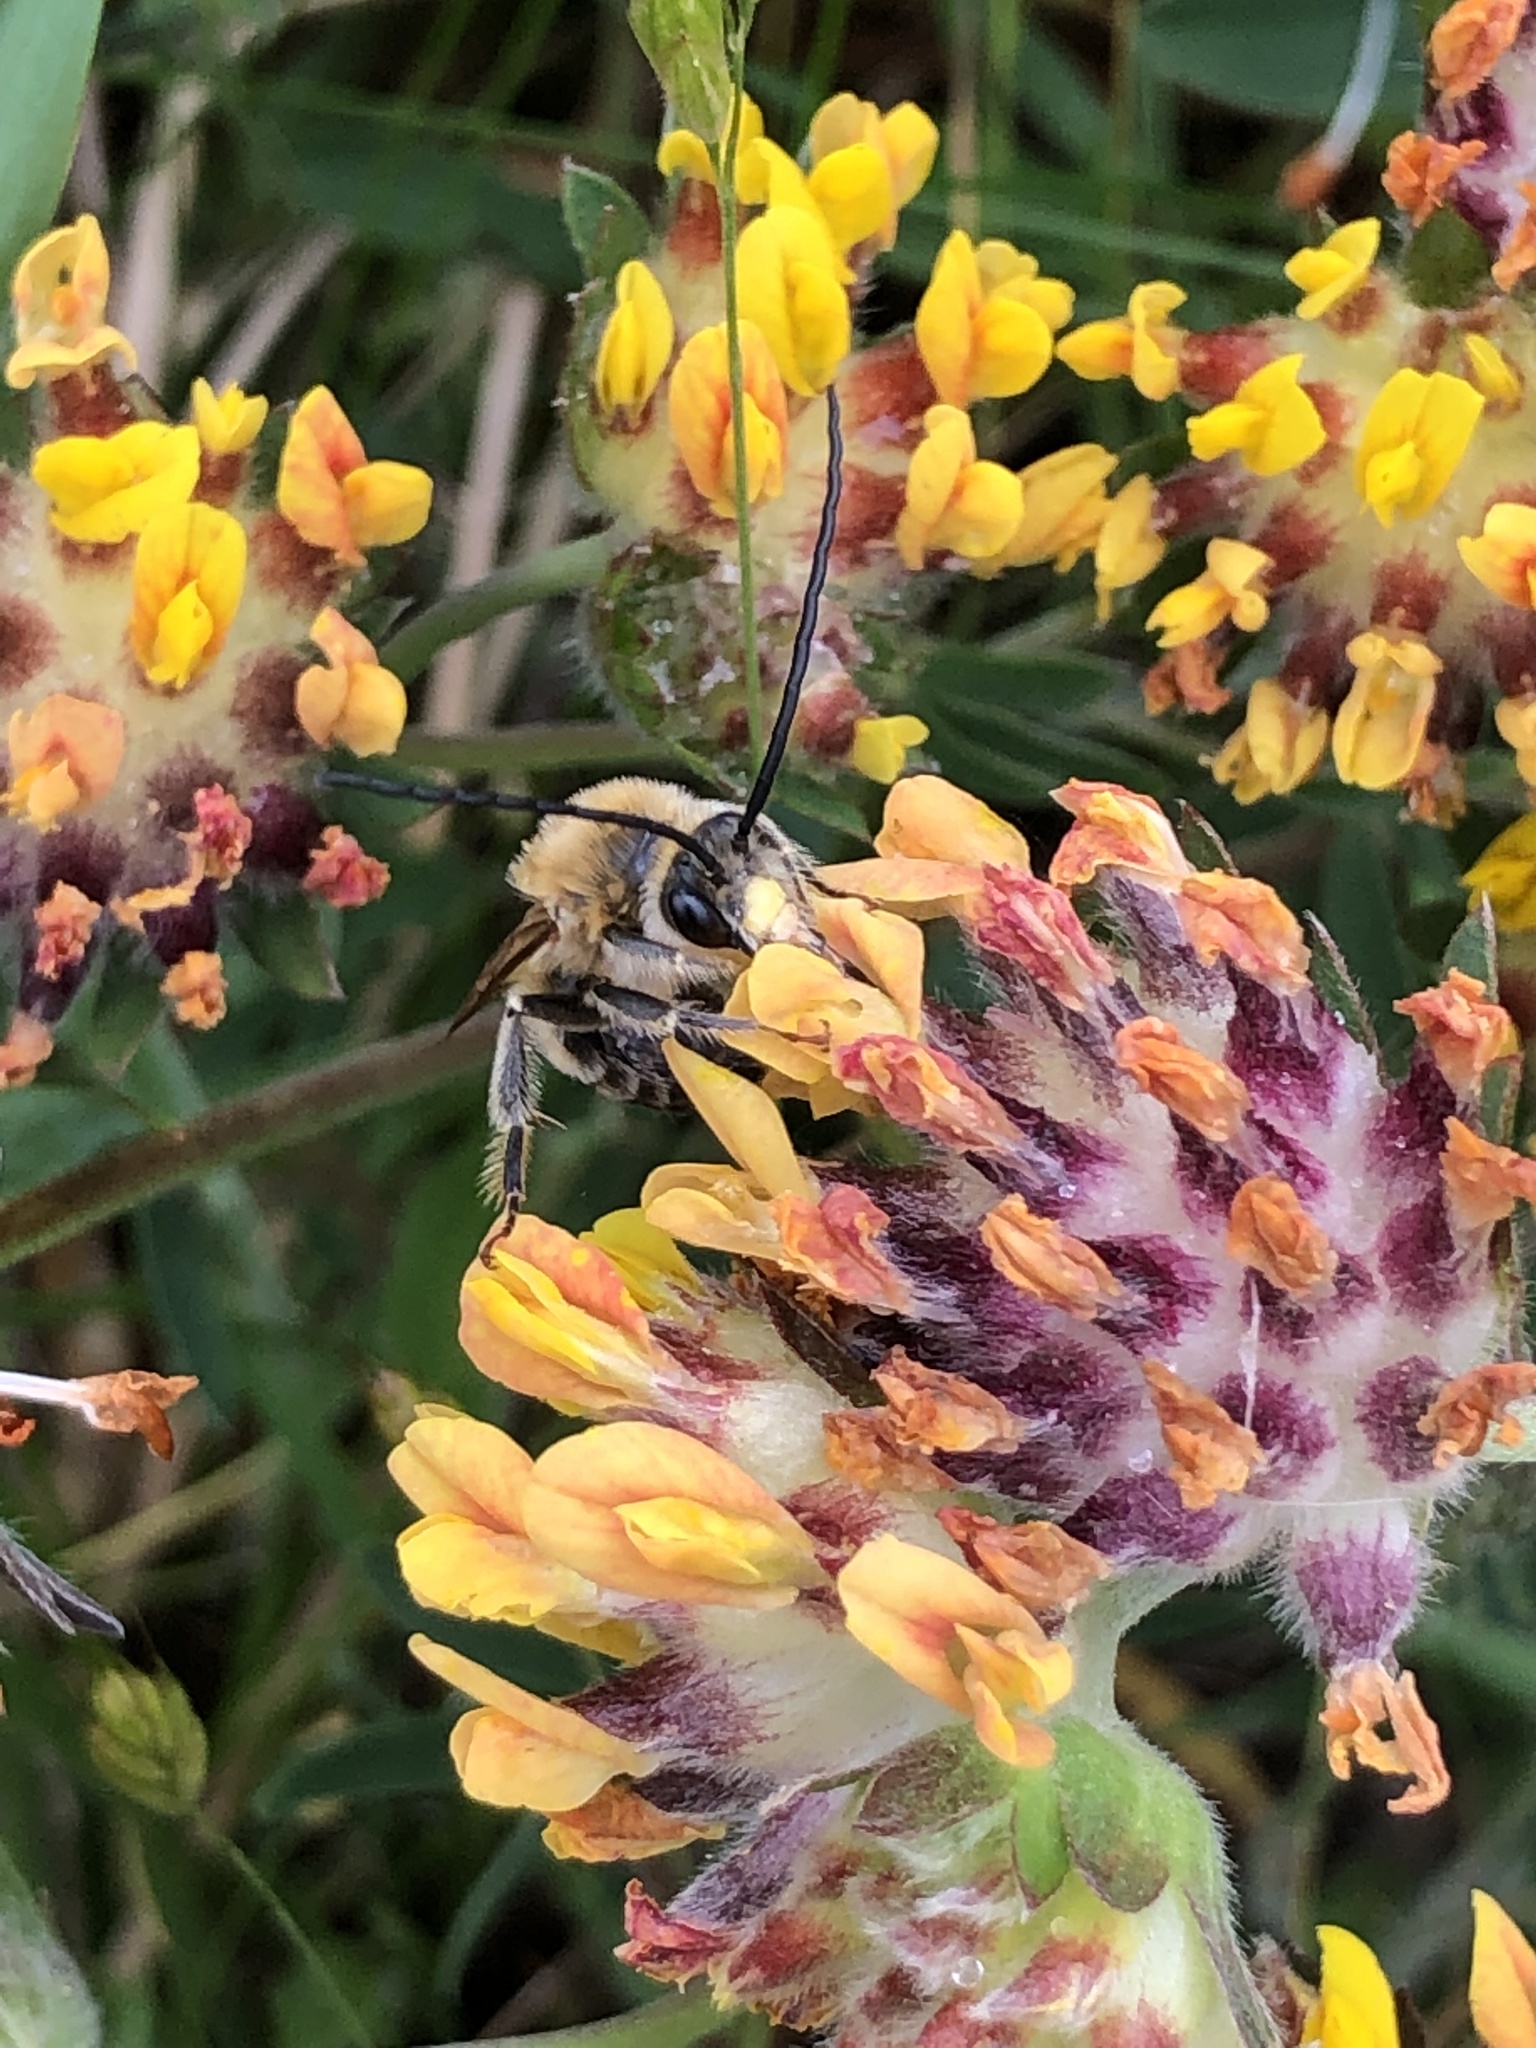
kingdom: Animalia
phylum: Arthropoda
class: Insecta
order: Hymenoptera
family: Apidae
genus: Eucera
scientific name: Eucera longicornis
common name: Long-horned bee
